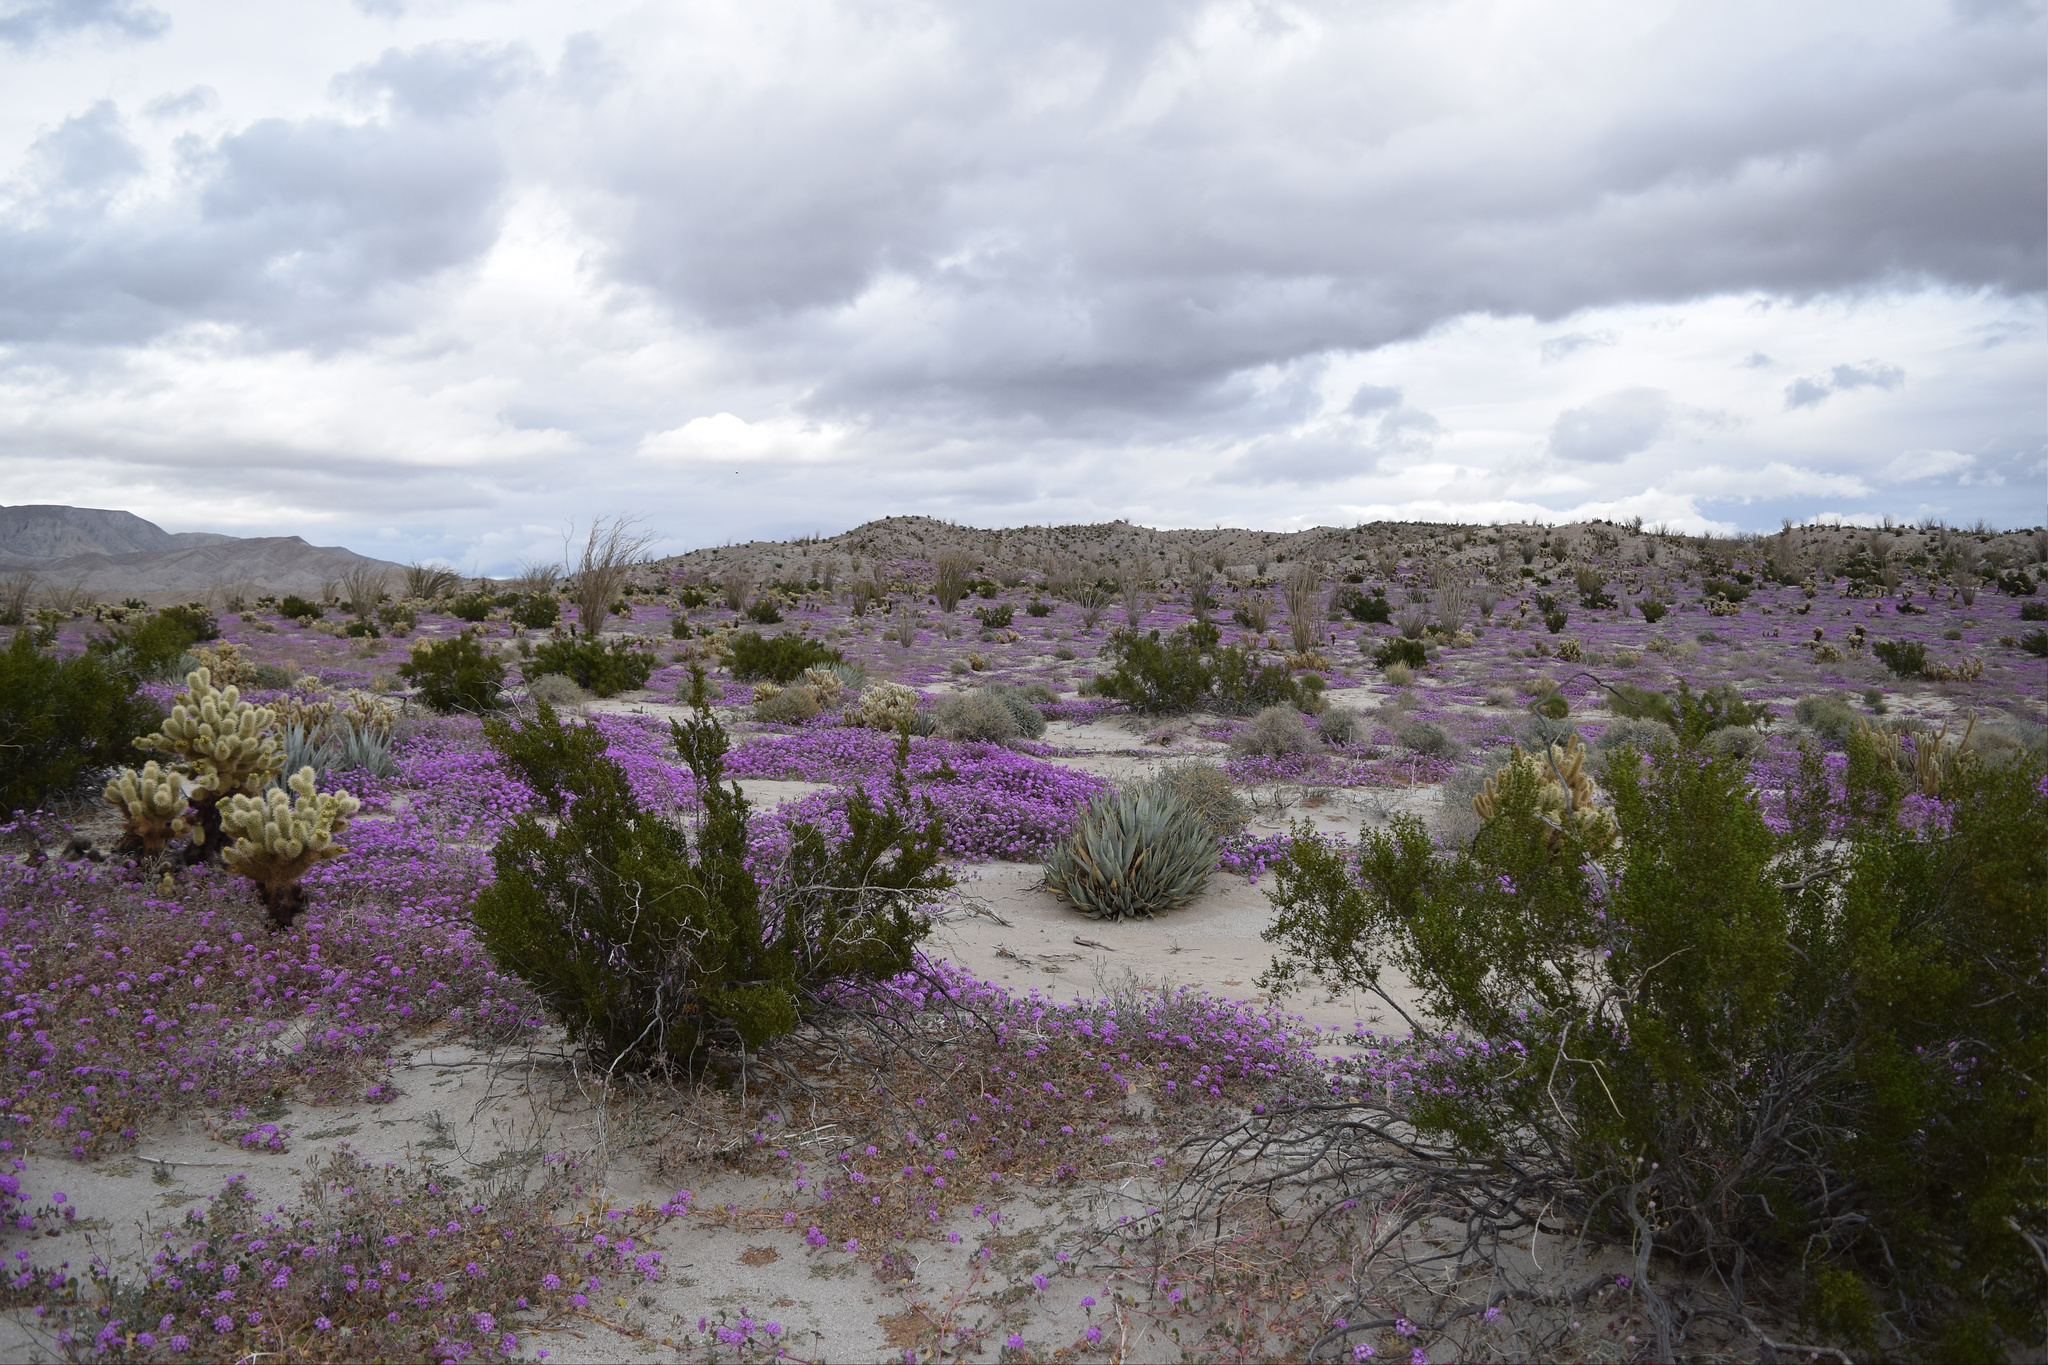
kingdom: Plantae
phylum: Tracheophyta
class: Magnoliopsida
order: Caryophyllales
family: Nyctaginaceae
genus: Abronia
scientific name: Abronia villosa
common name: Desert sand-verbena
